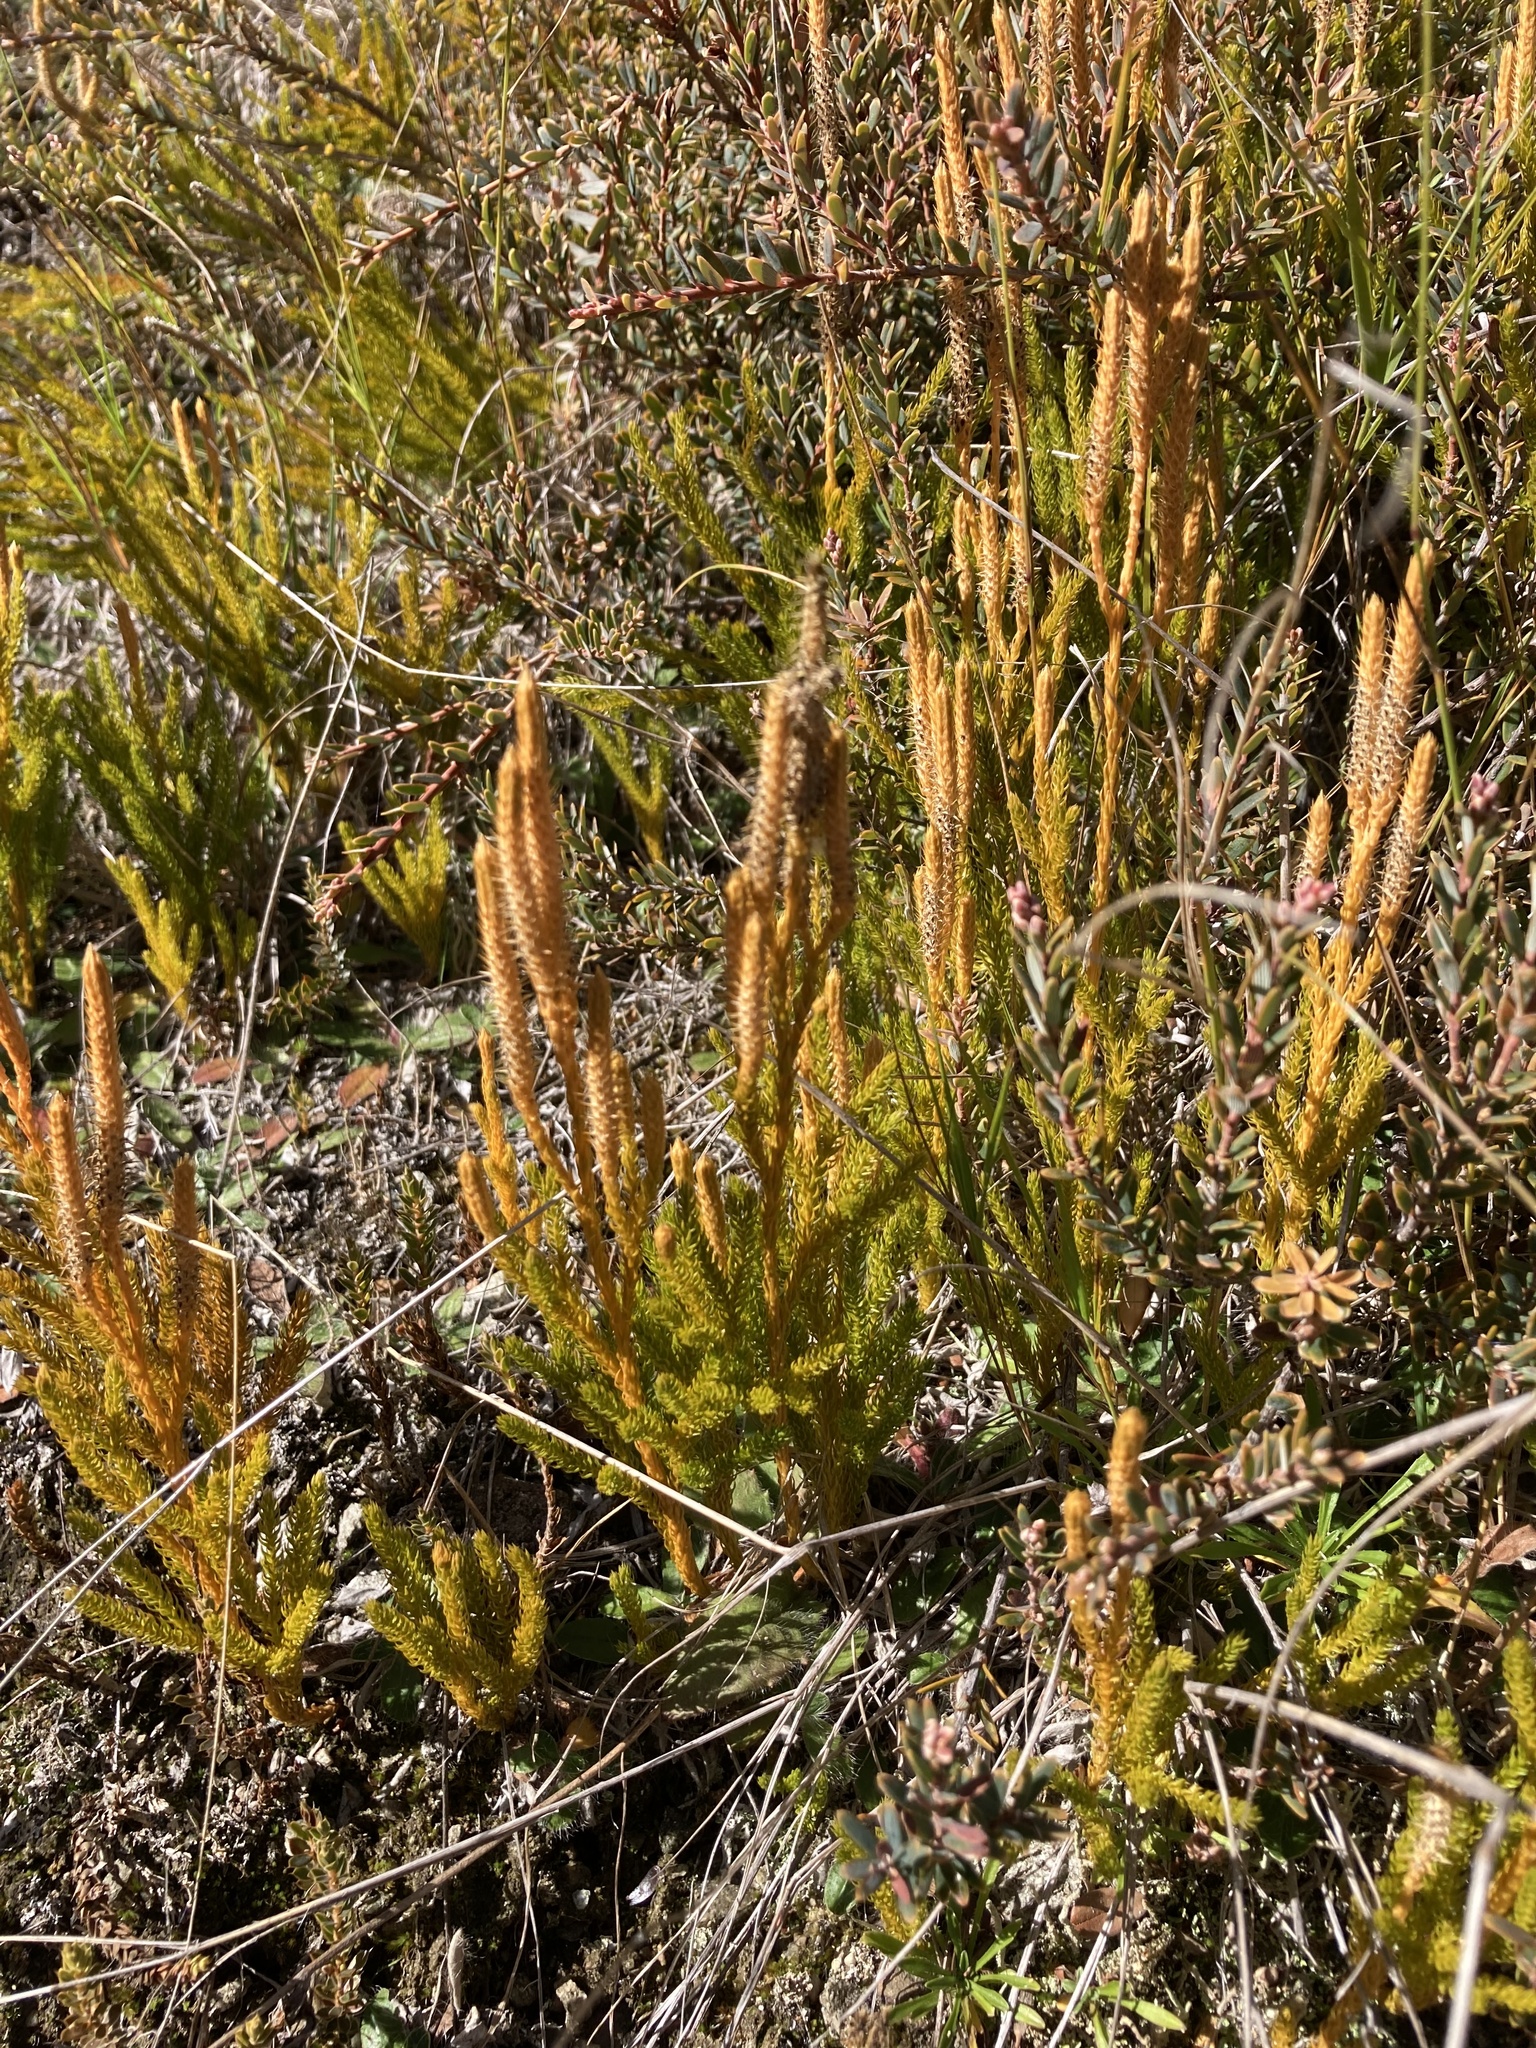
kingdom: Plantae
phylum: Tracheophyta
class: Lycopodiopsida
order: Lycopodiales
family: Lycopodiaceae
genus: Austrolycopodium
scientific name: Austrolycopodium fastigiatum
